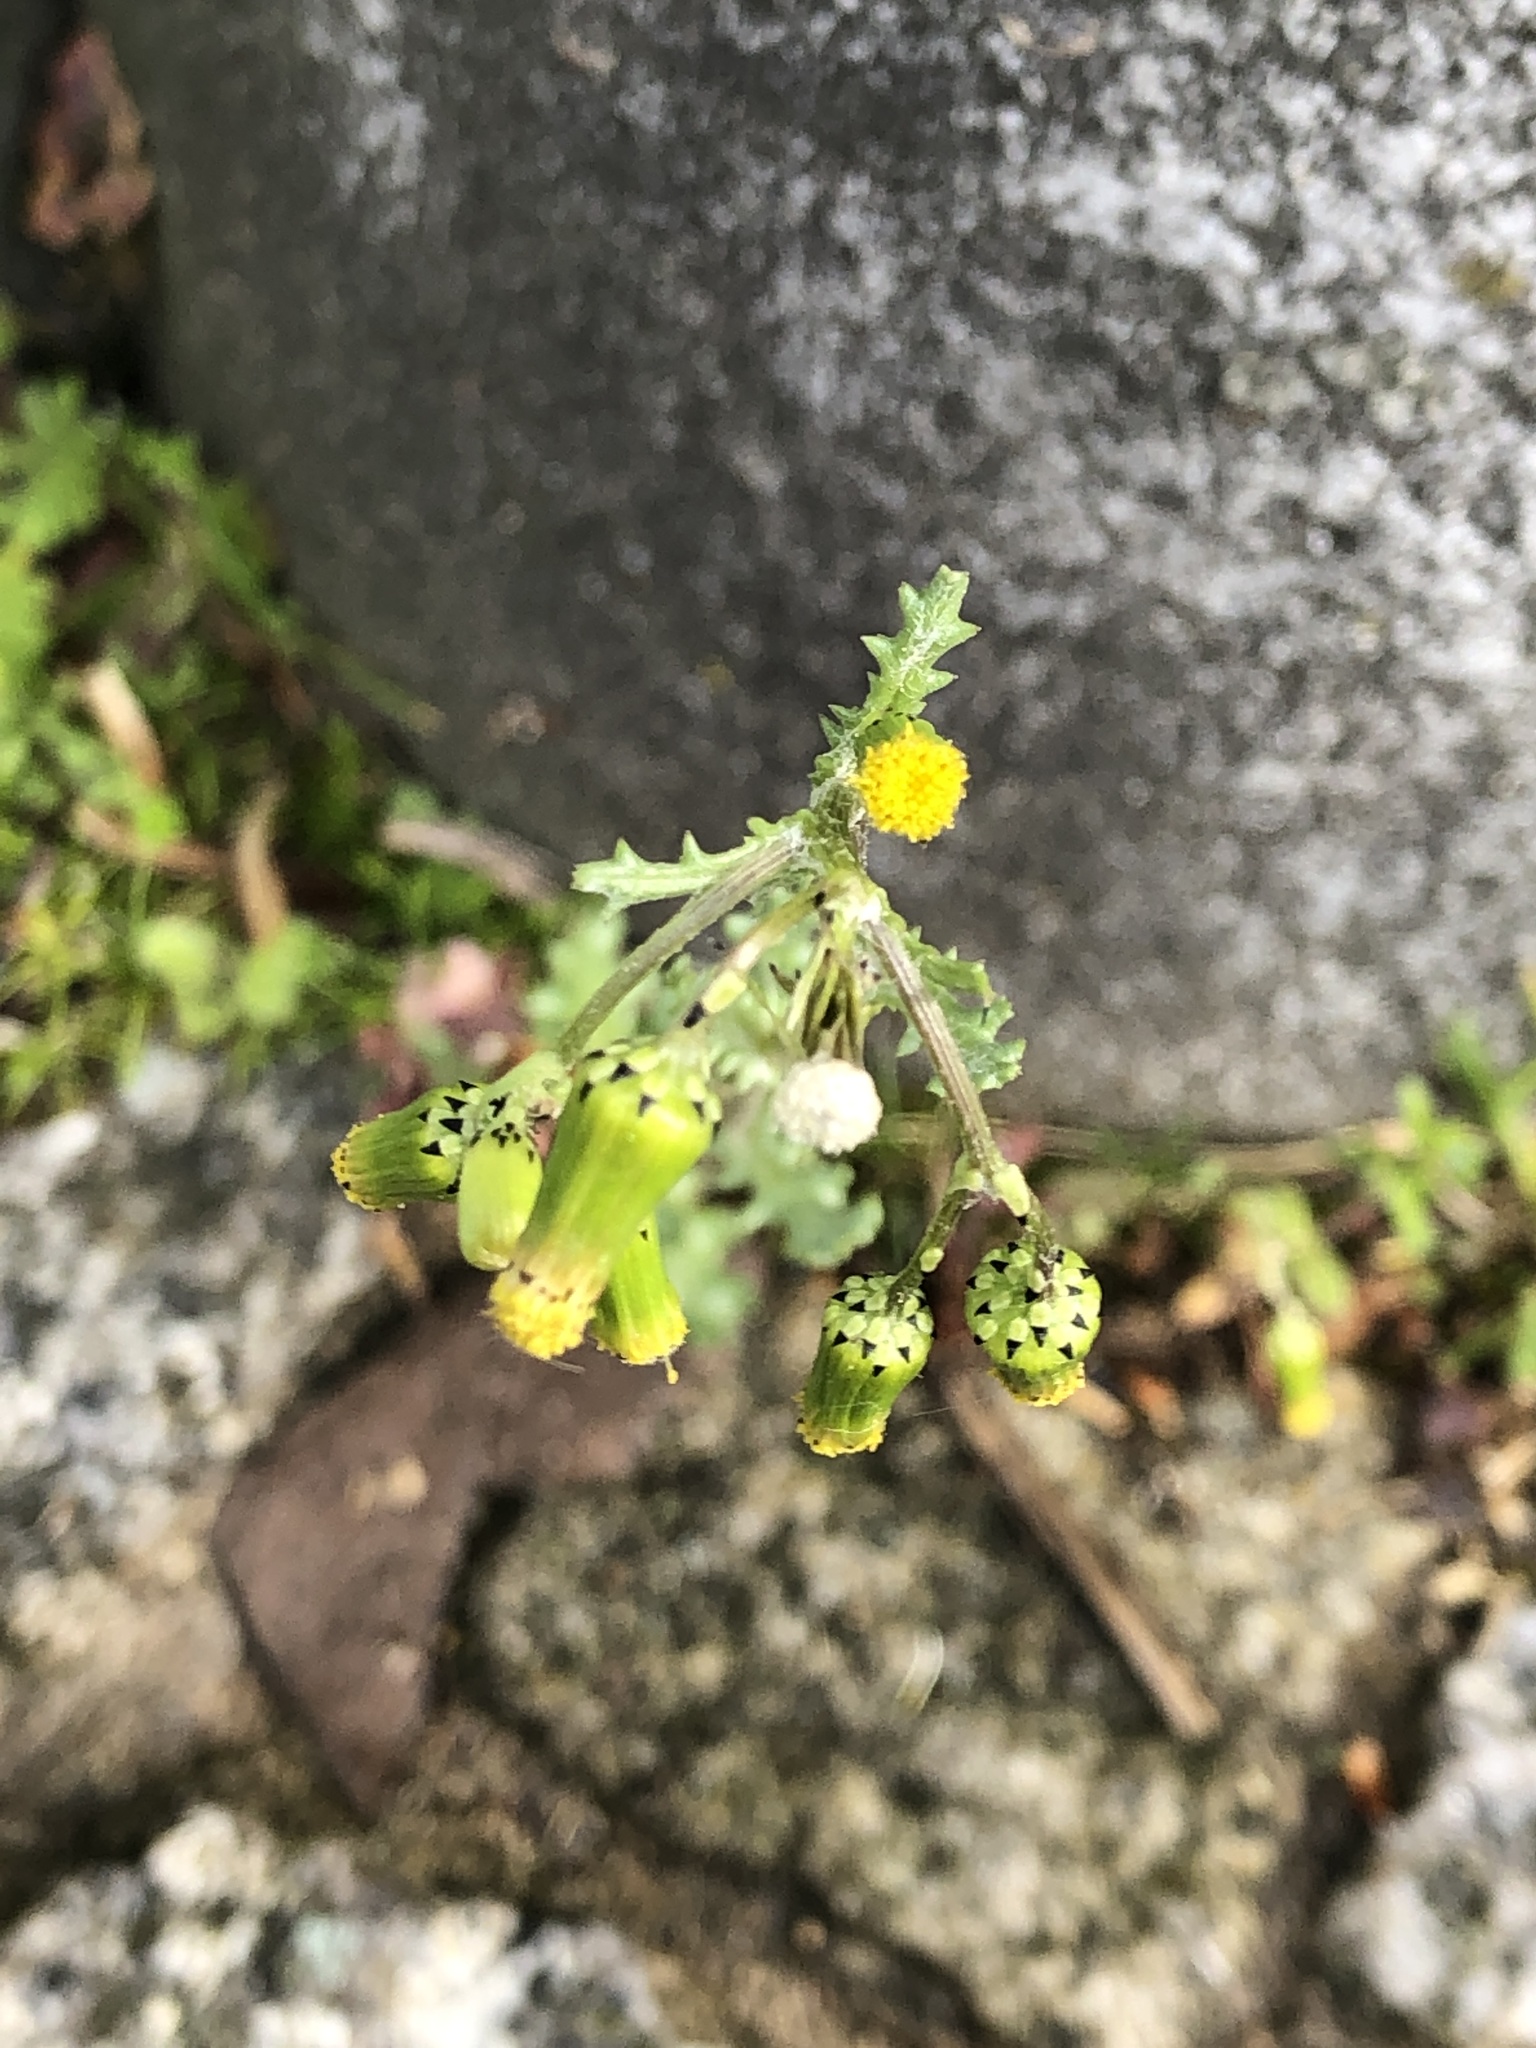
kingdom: Plantae
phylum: Tracheophyta
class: Magnoliopsida
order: Asterales
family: Asteraceae
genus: Senecio
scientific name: Senecio vulgaris
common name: Old-man-in-the-spring
